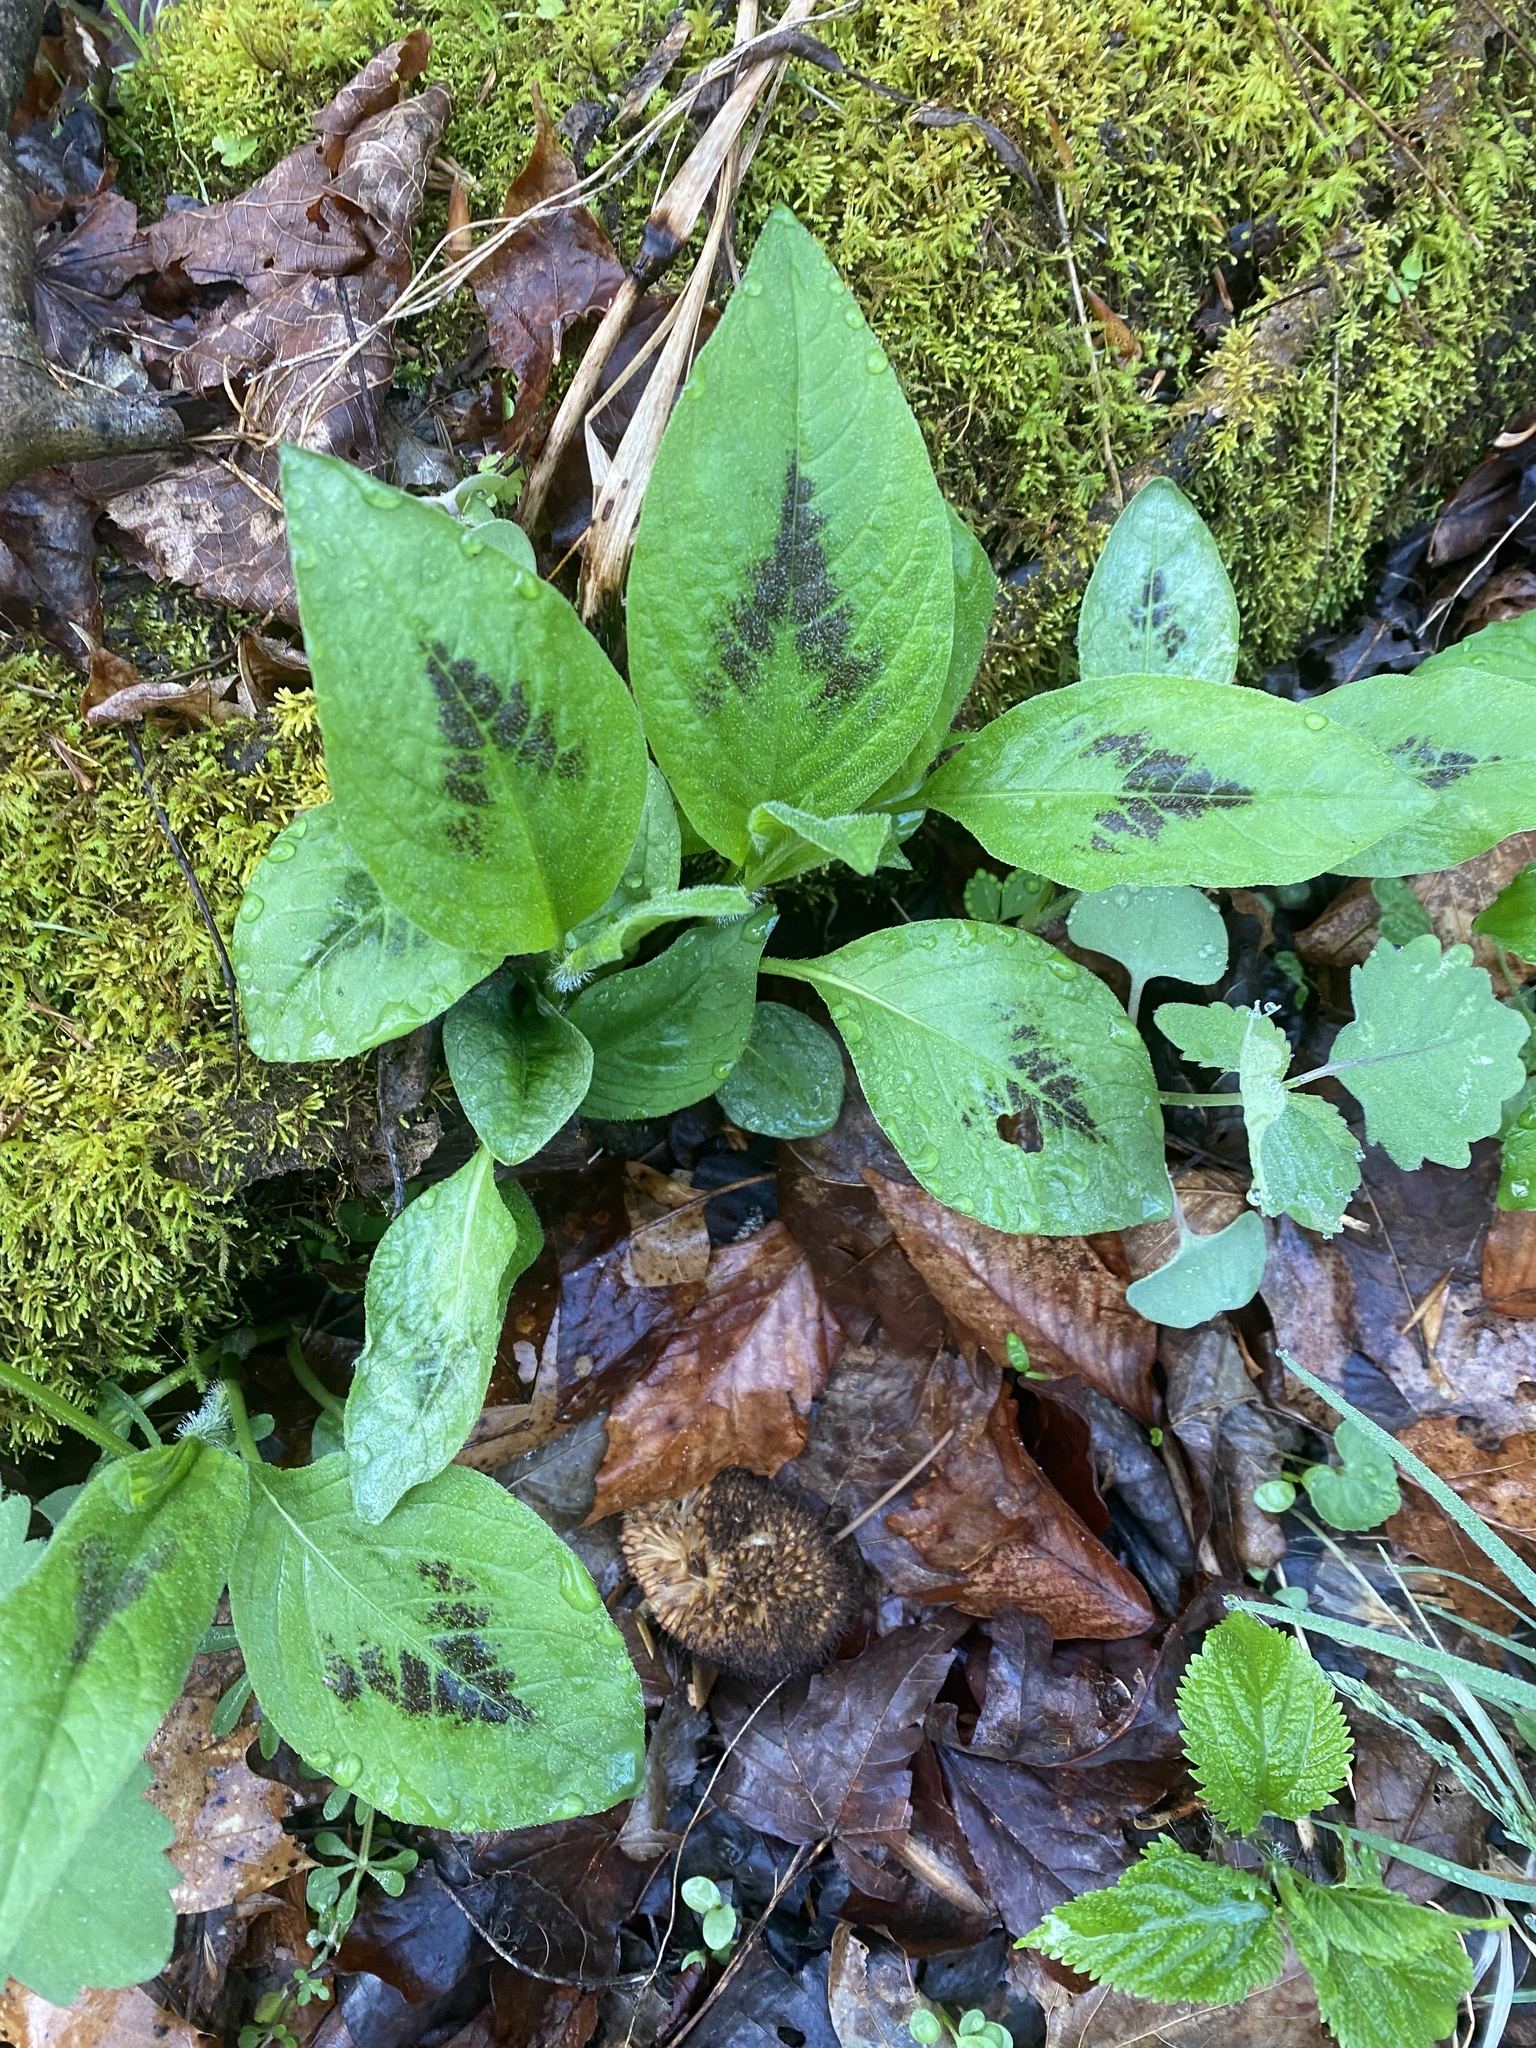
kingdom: Plantae
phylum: Tracheophyta
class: Magnoliopsida
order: Caryophyllales
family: Polygonaceae
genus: Persicaria
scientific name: Persicaria virginiana
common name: Jumpseed
